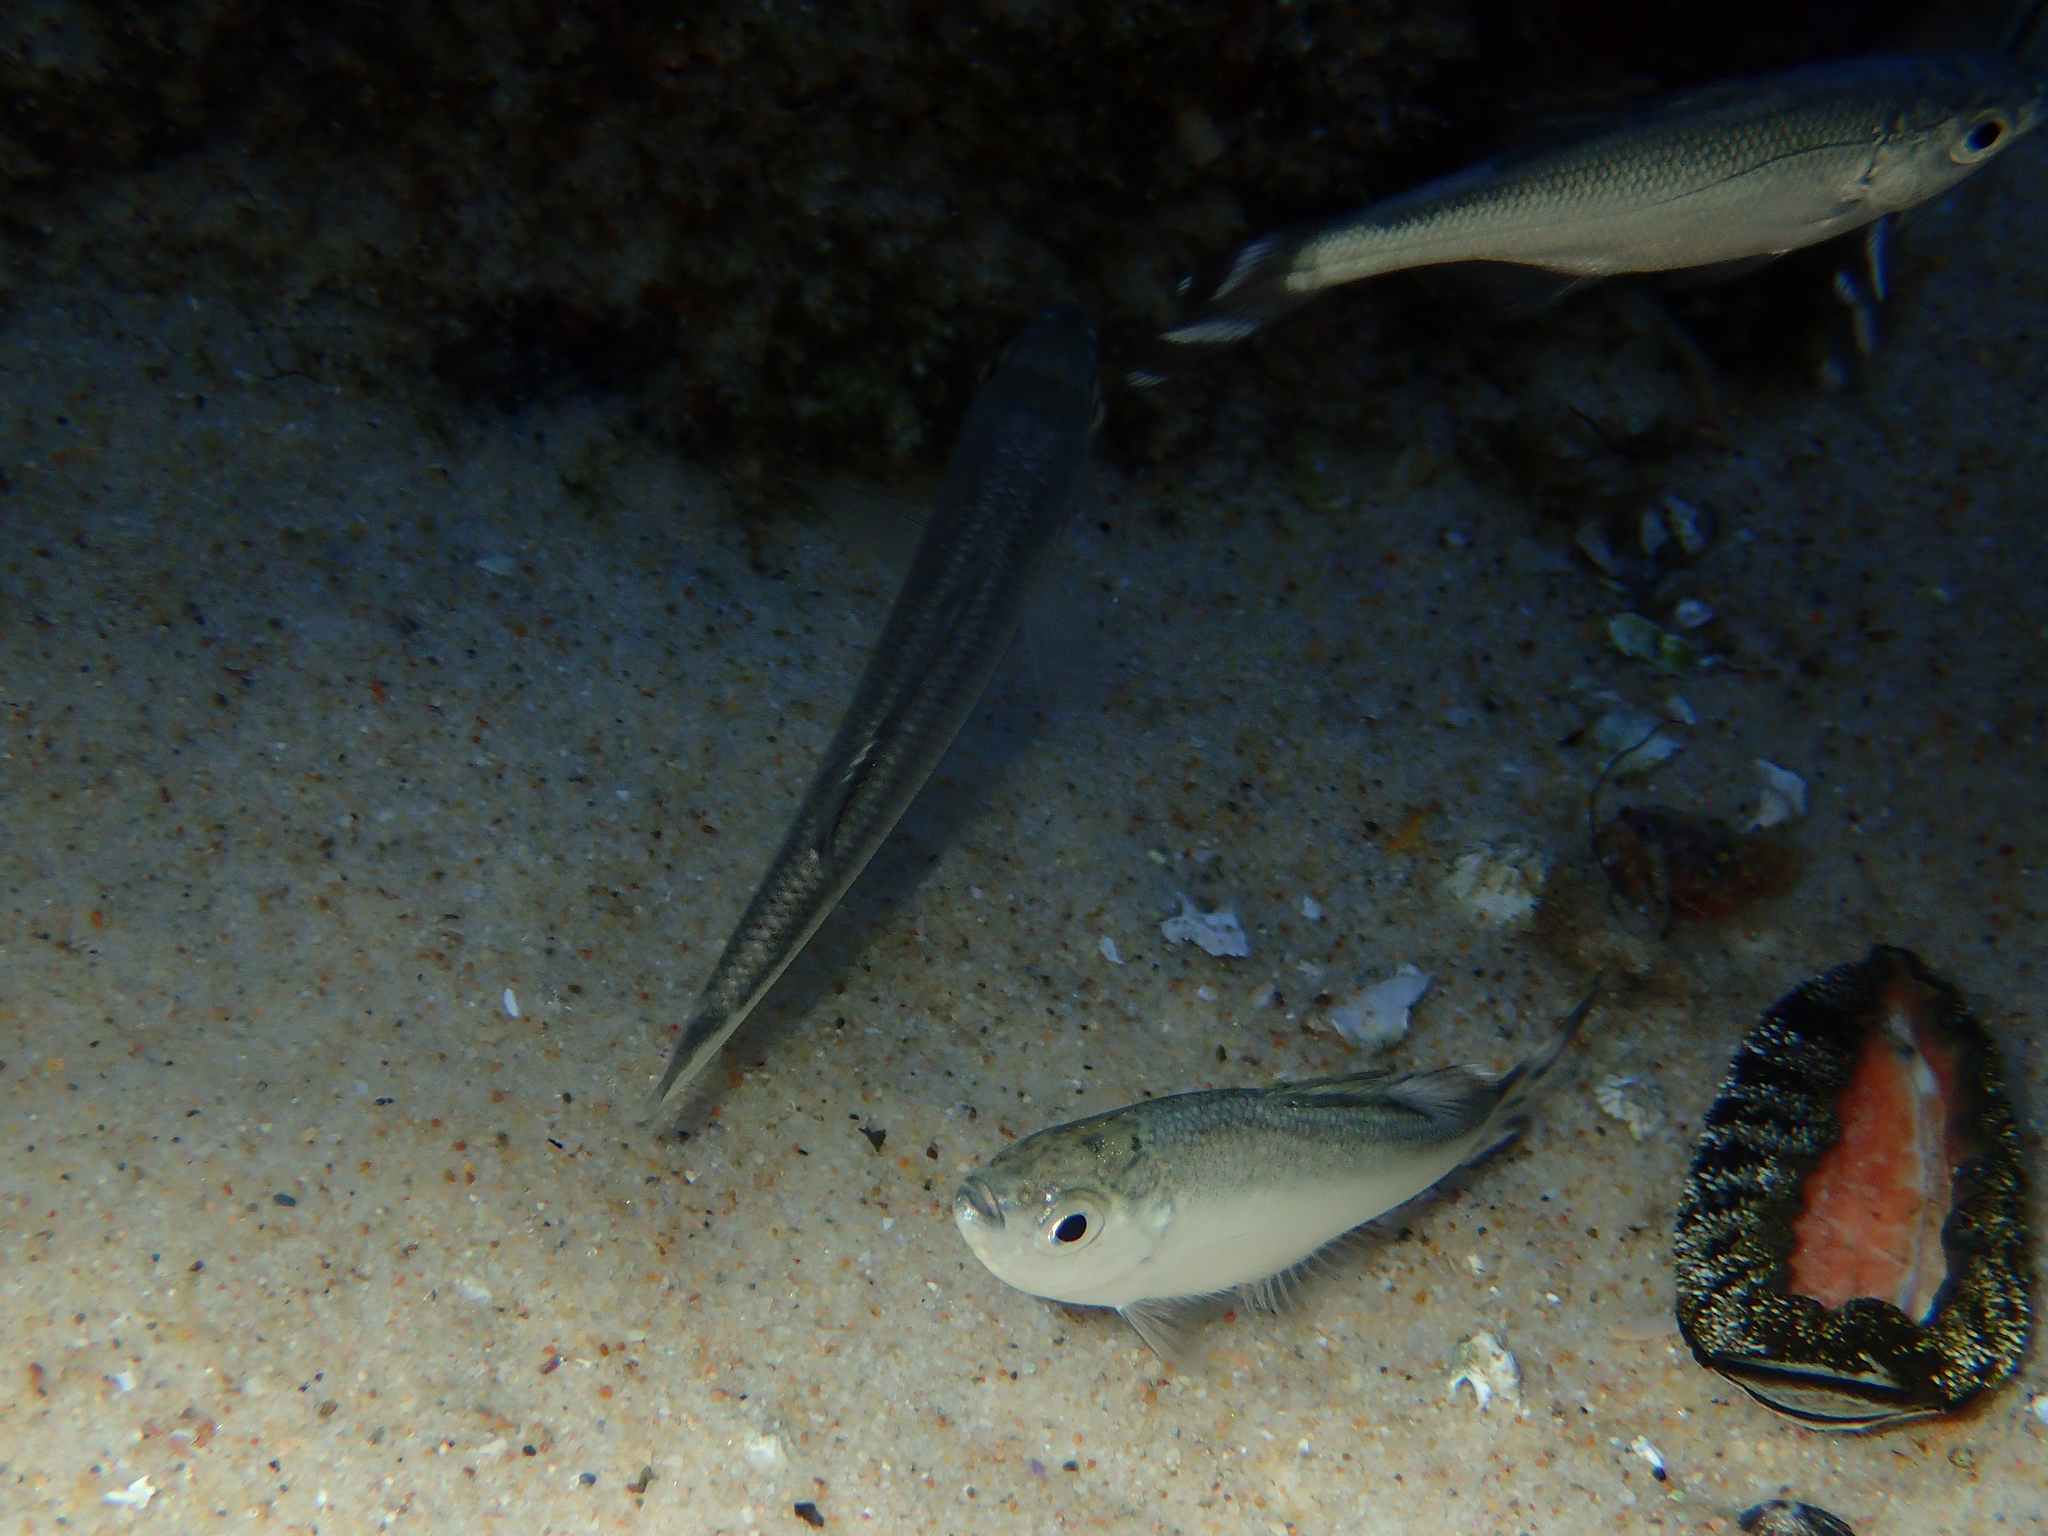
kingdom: Animalia
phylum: Chordata
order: Perciformes
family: Kuhliidae
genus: Kuhlia
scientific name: Kuhlia mugil
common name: Barred flagtail
